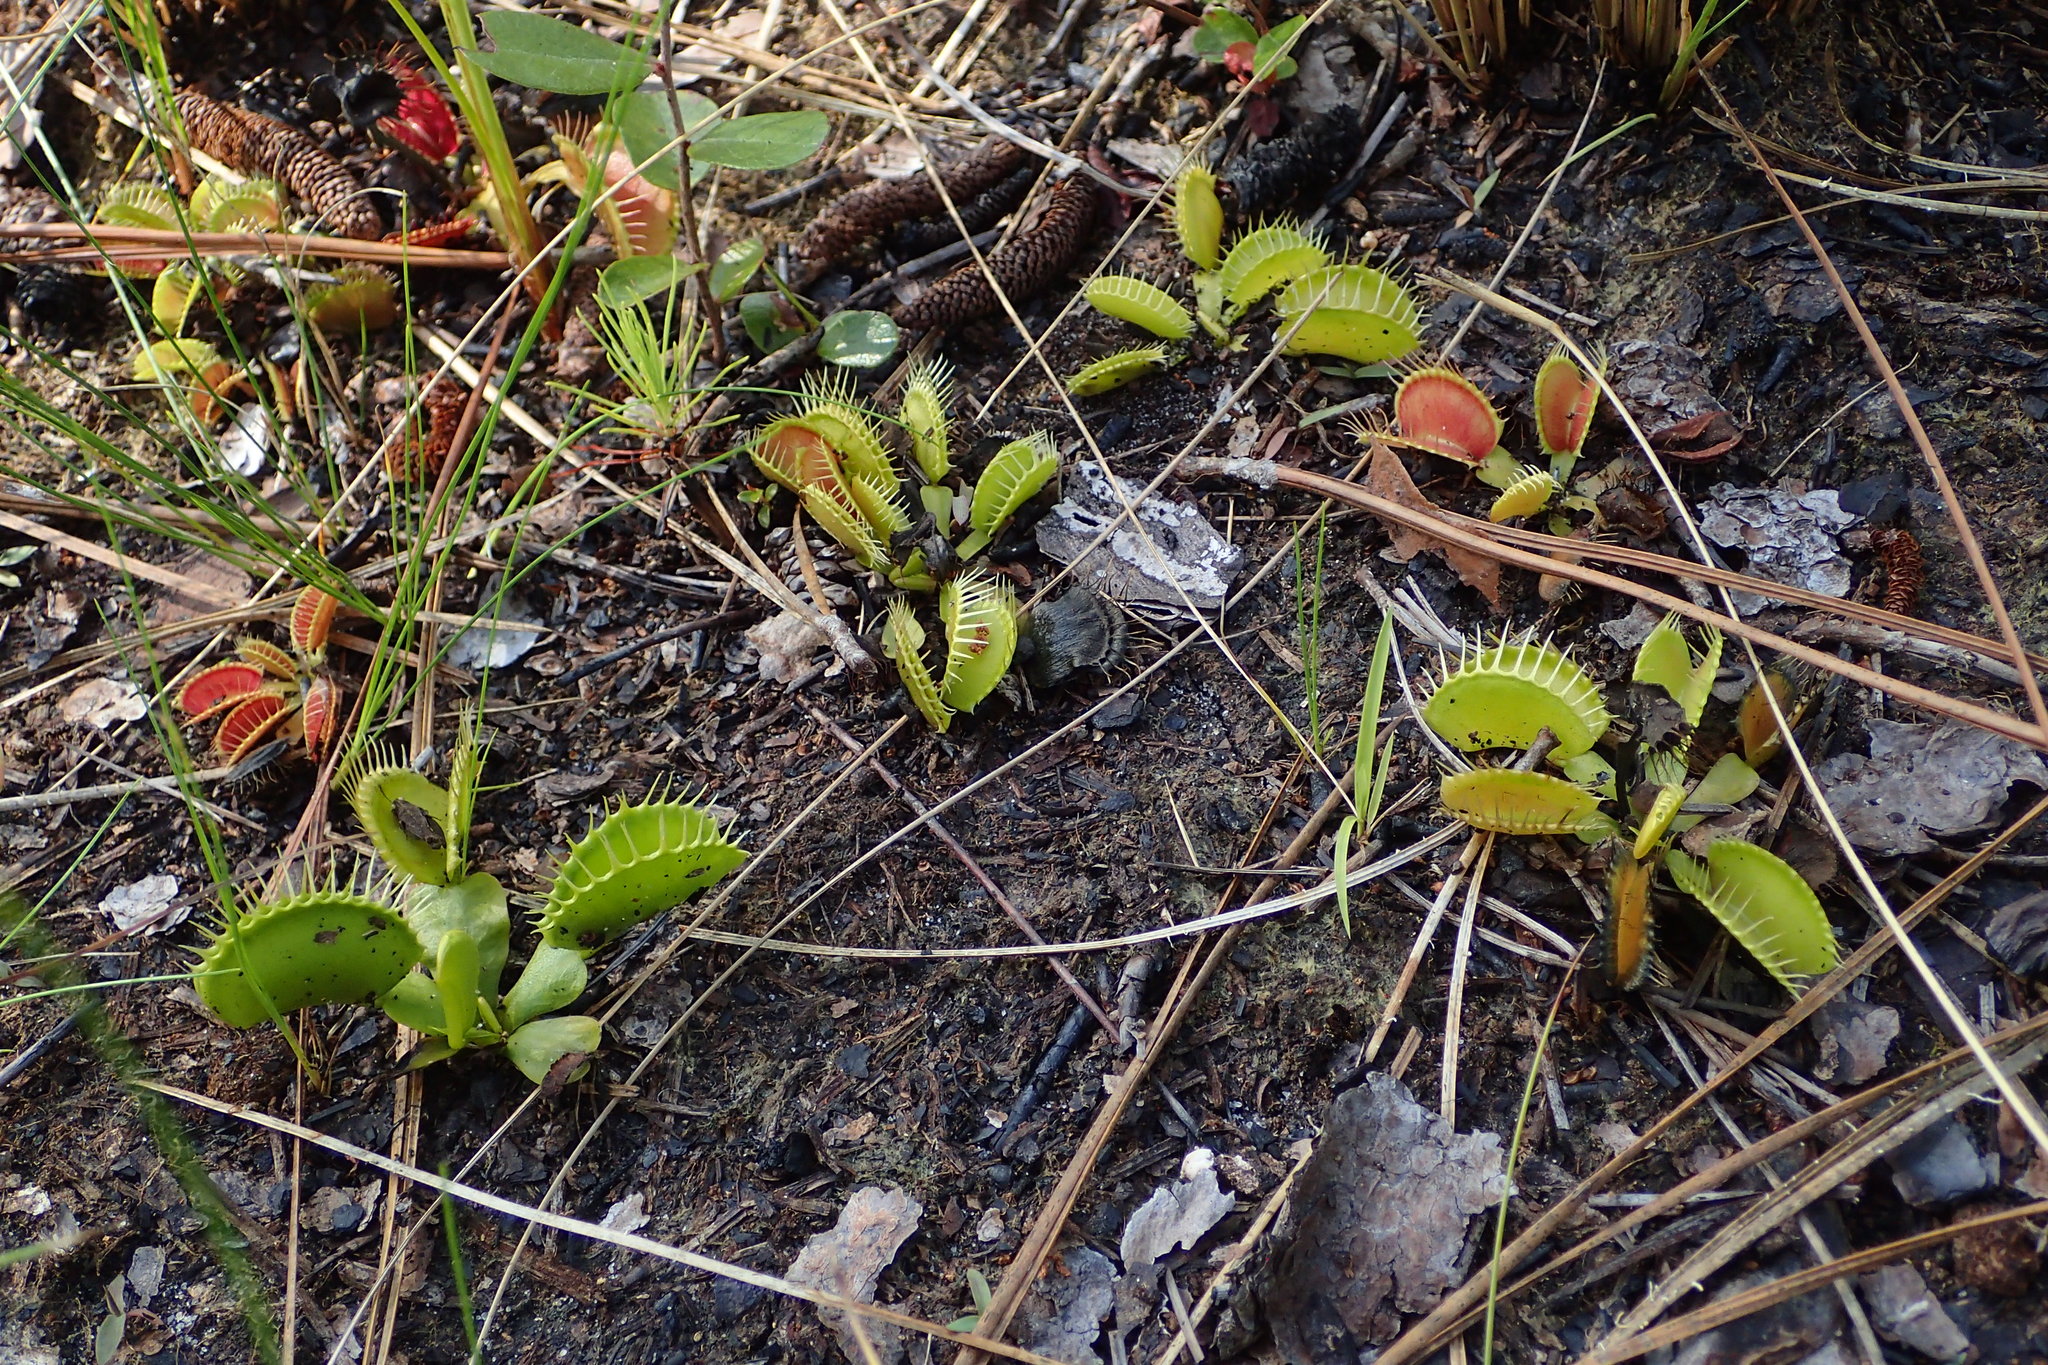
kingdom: Plantae
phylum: Tracheophyta
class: Magnoliopsida
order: Caryophyllales
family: Droseraceae
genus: Dionaea
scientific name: Dionaea muscipula
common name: Venus flytrap
